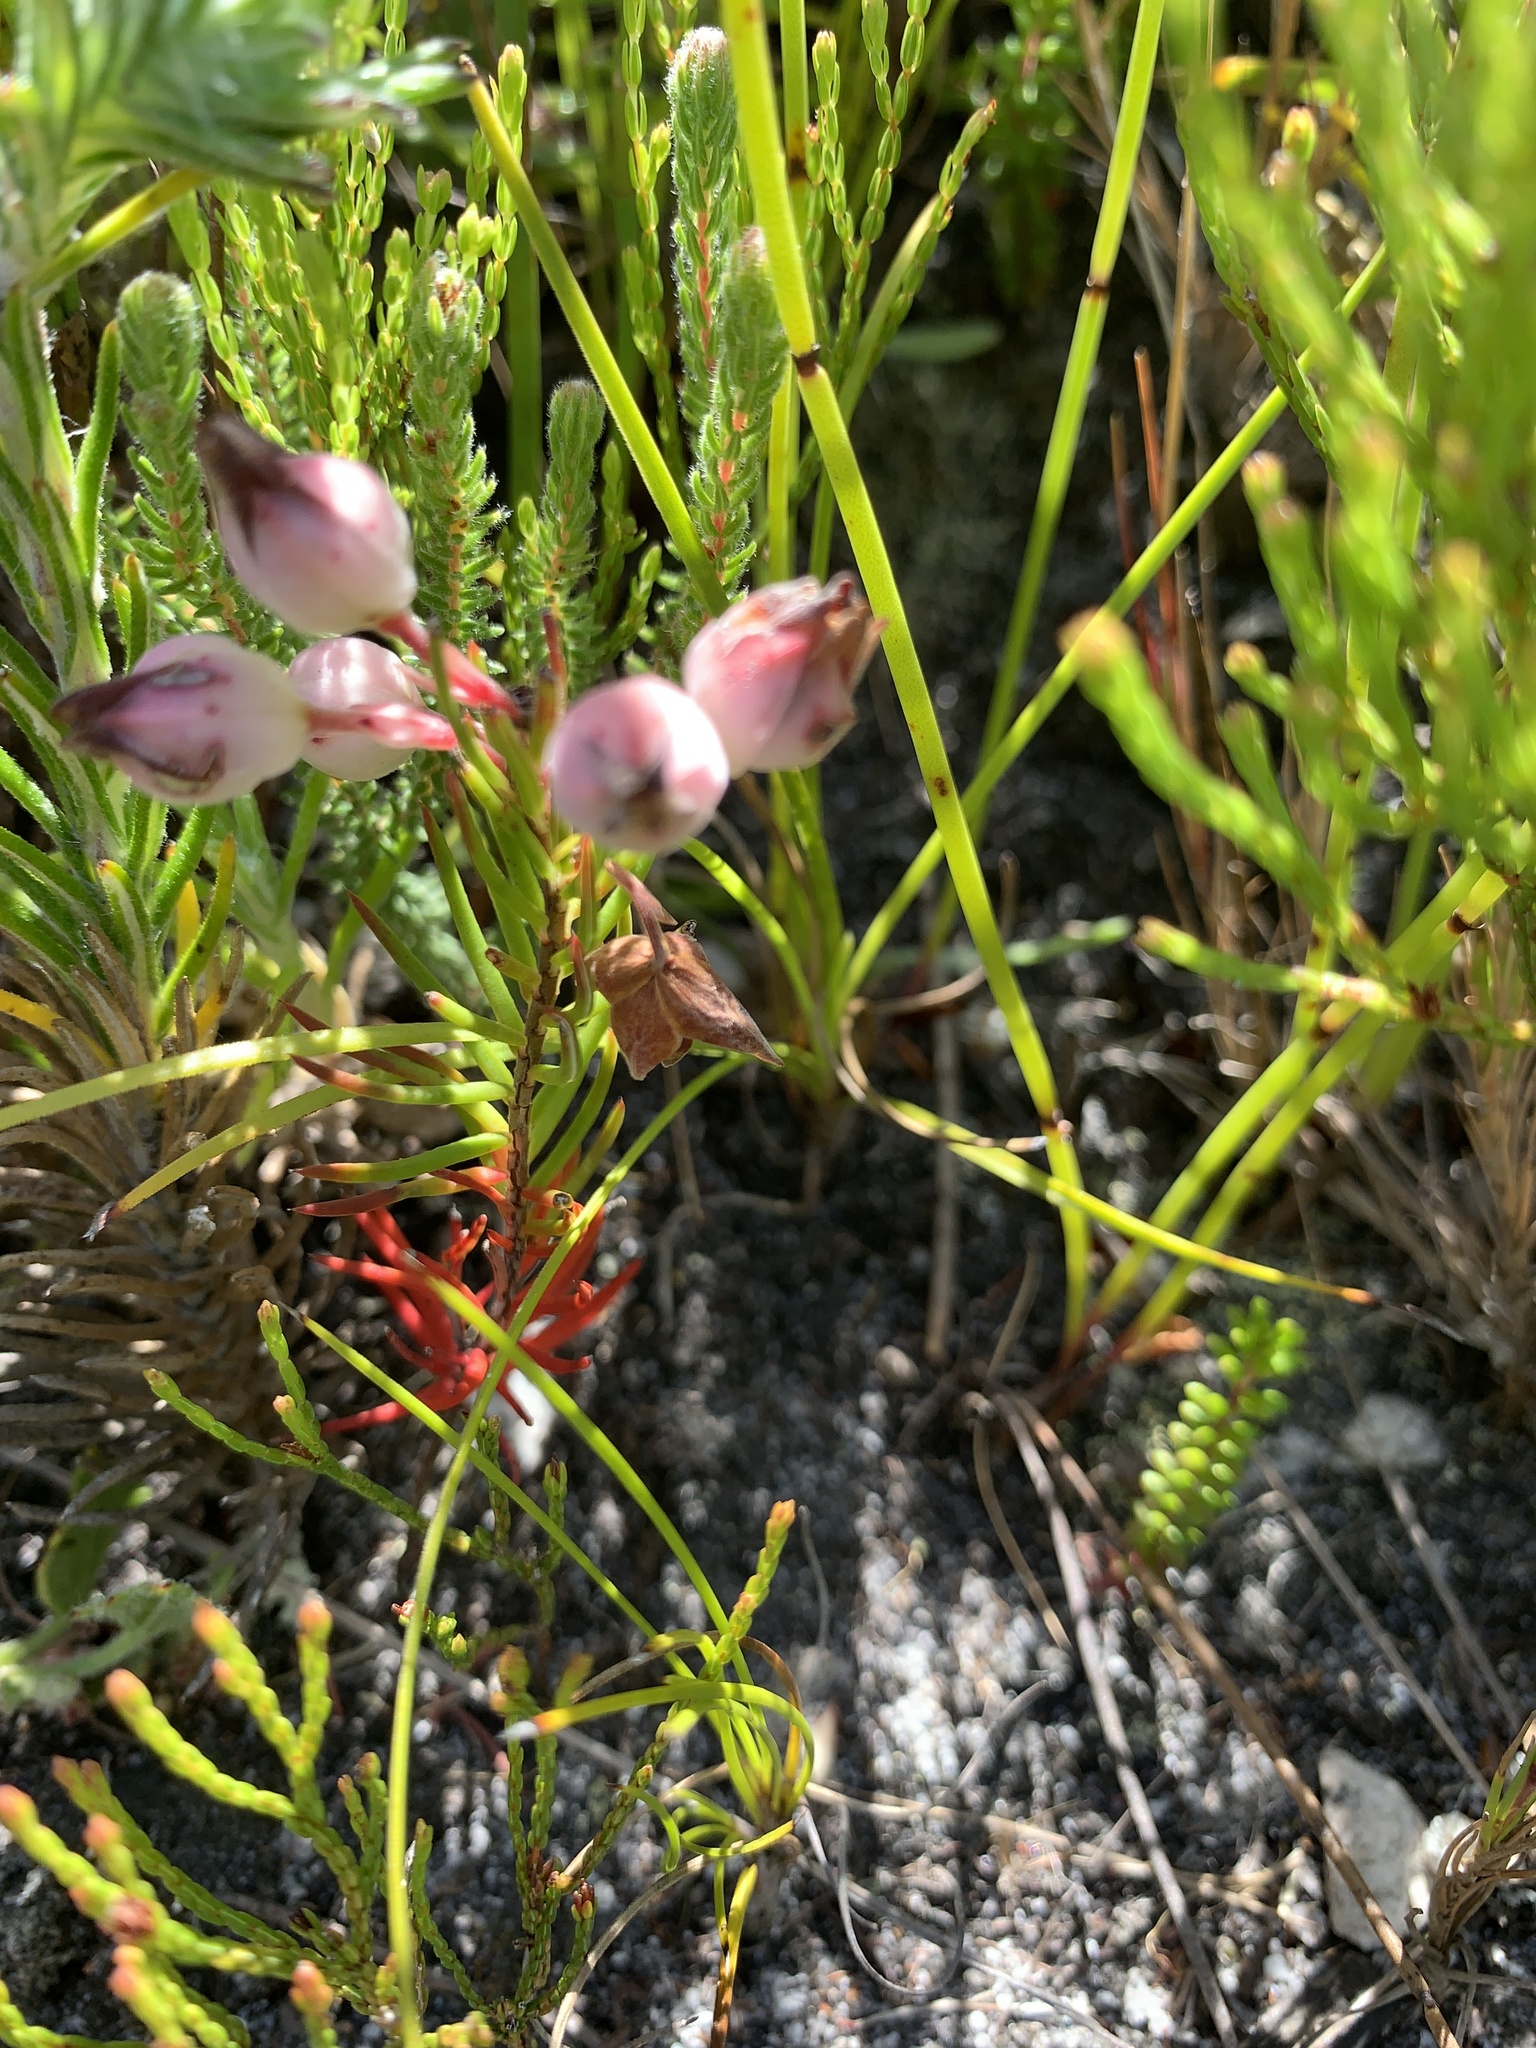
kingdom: Plantae
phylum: Tracheophyta
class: Magnoliopsida
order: Ericales
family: Ericaceae
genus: Erica
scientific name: Erica holosericea
